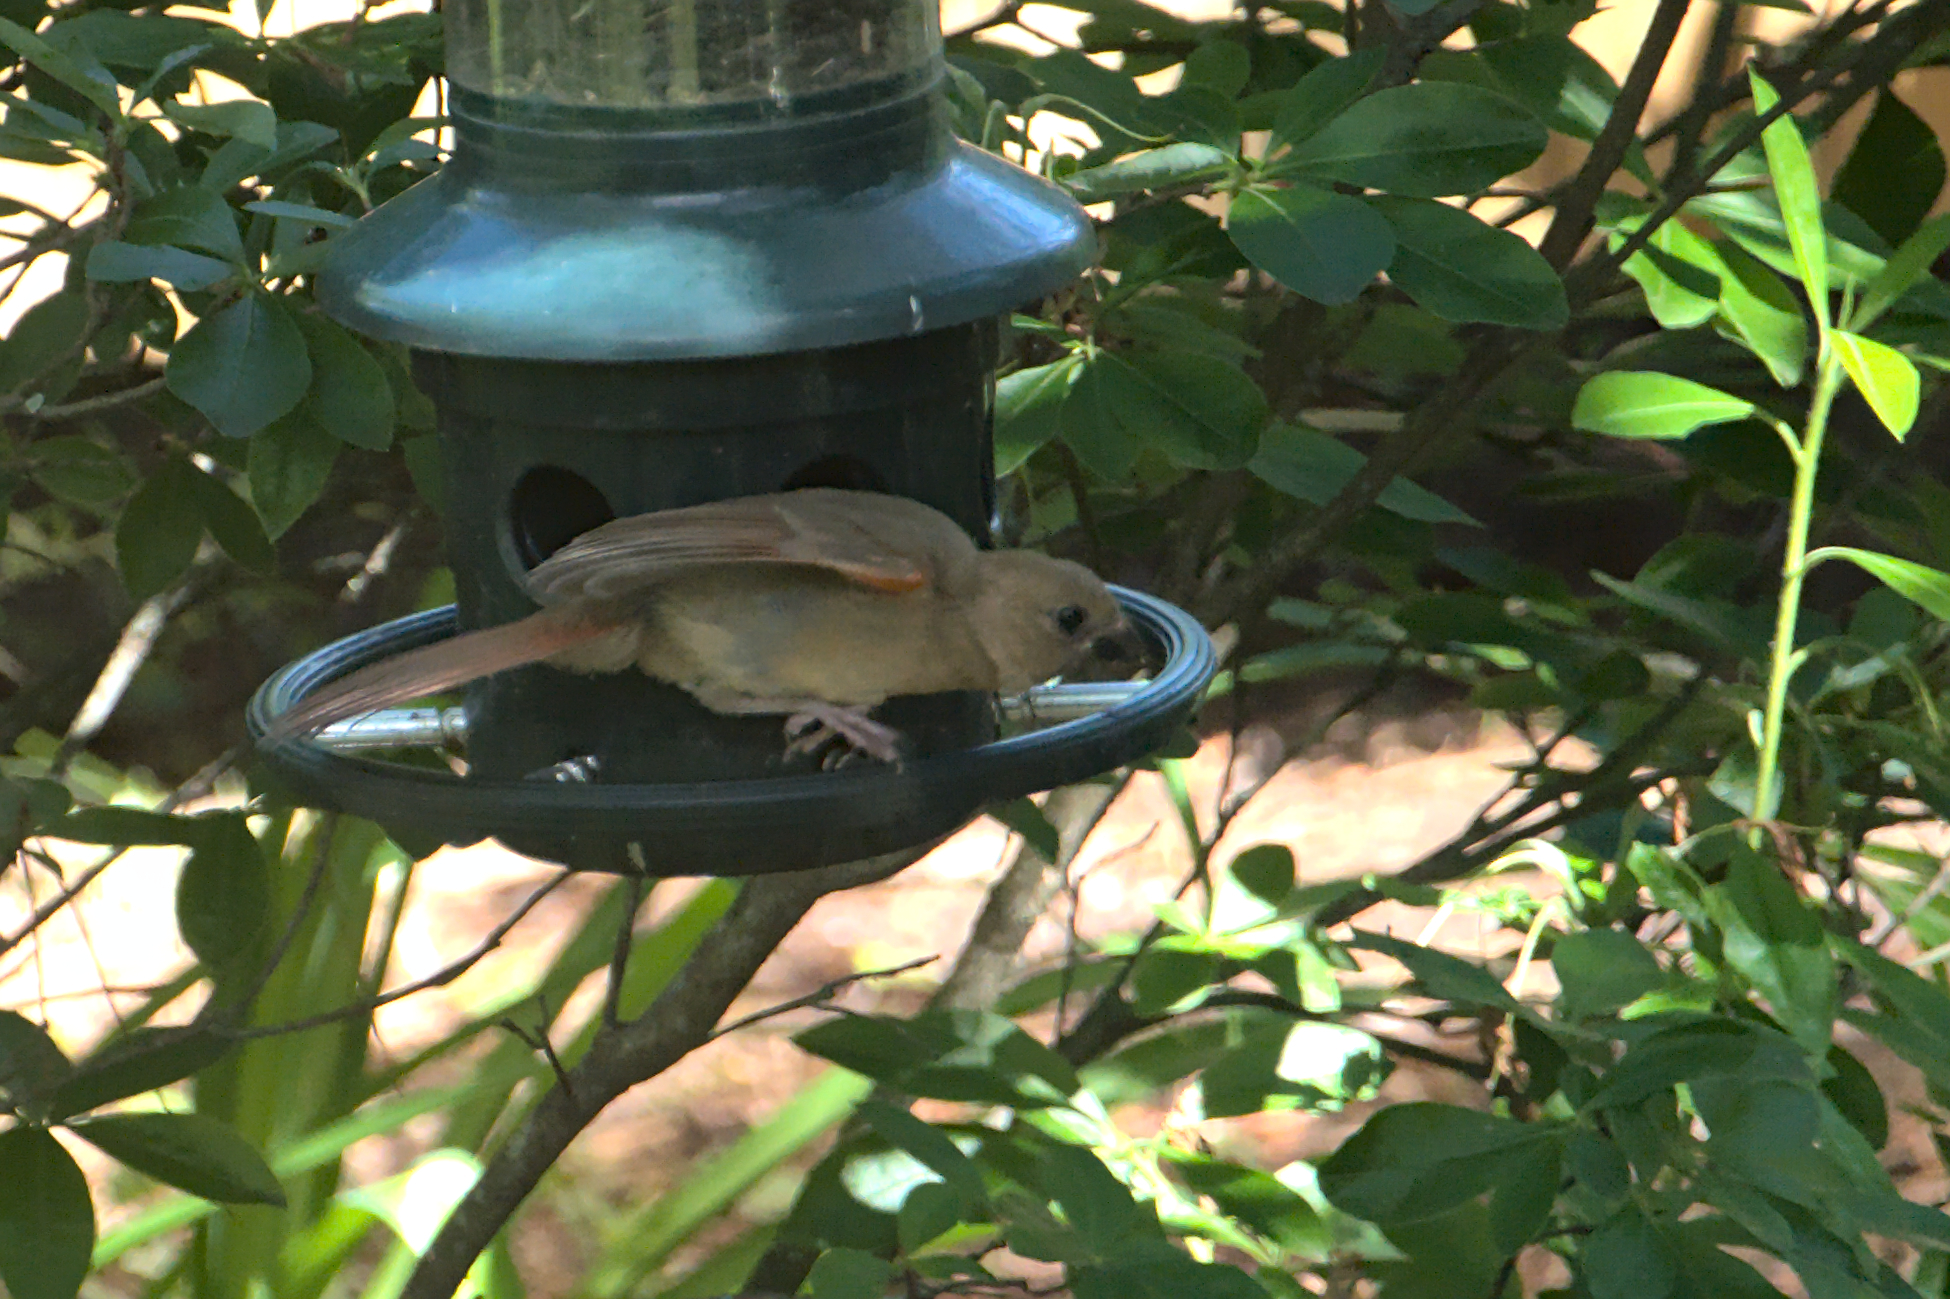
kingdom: Animalia
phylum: Chordata
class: Aves
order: Passeriformes
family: Cardinalidae
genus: Cardinalis
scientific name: Cardinalis cardinalis
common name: Northern cardinal
